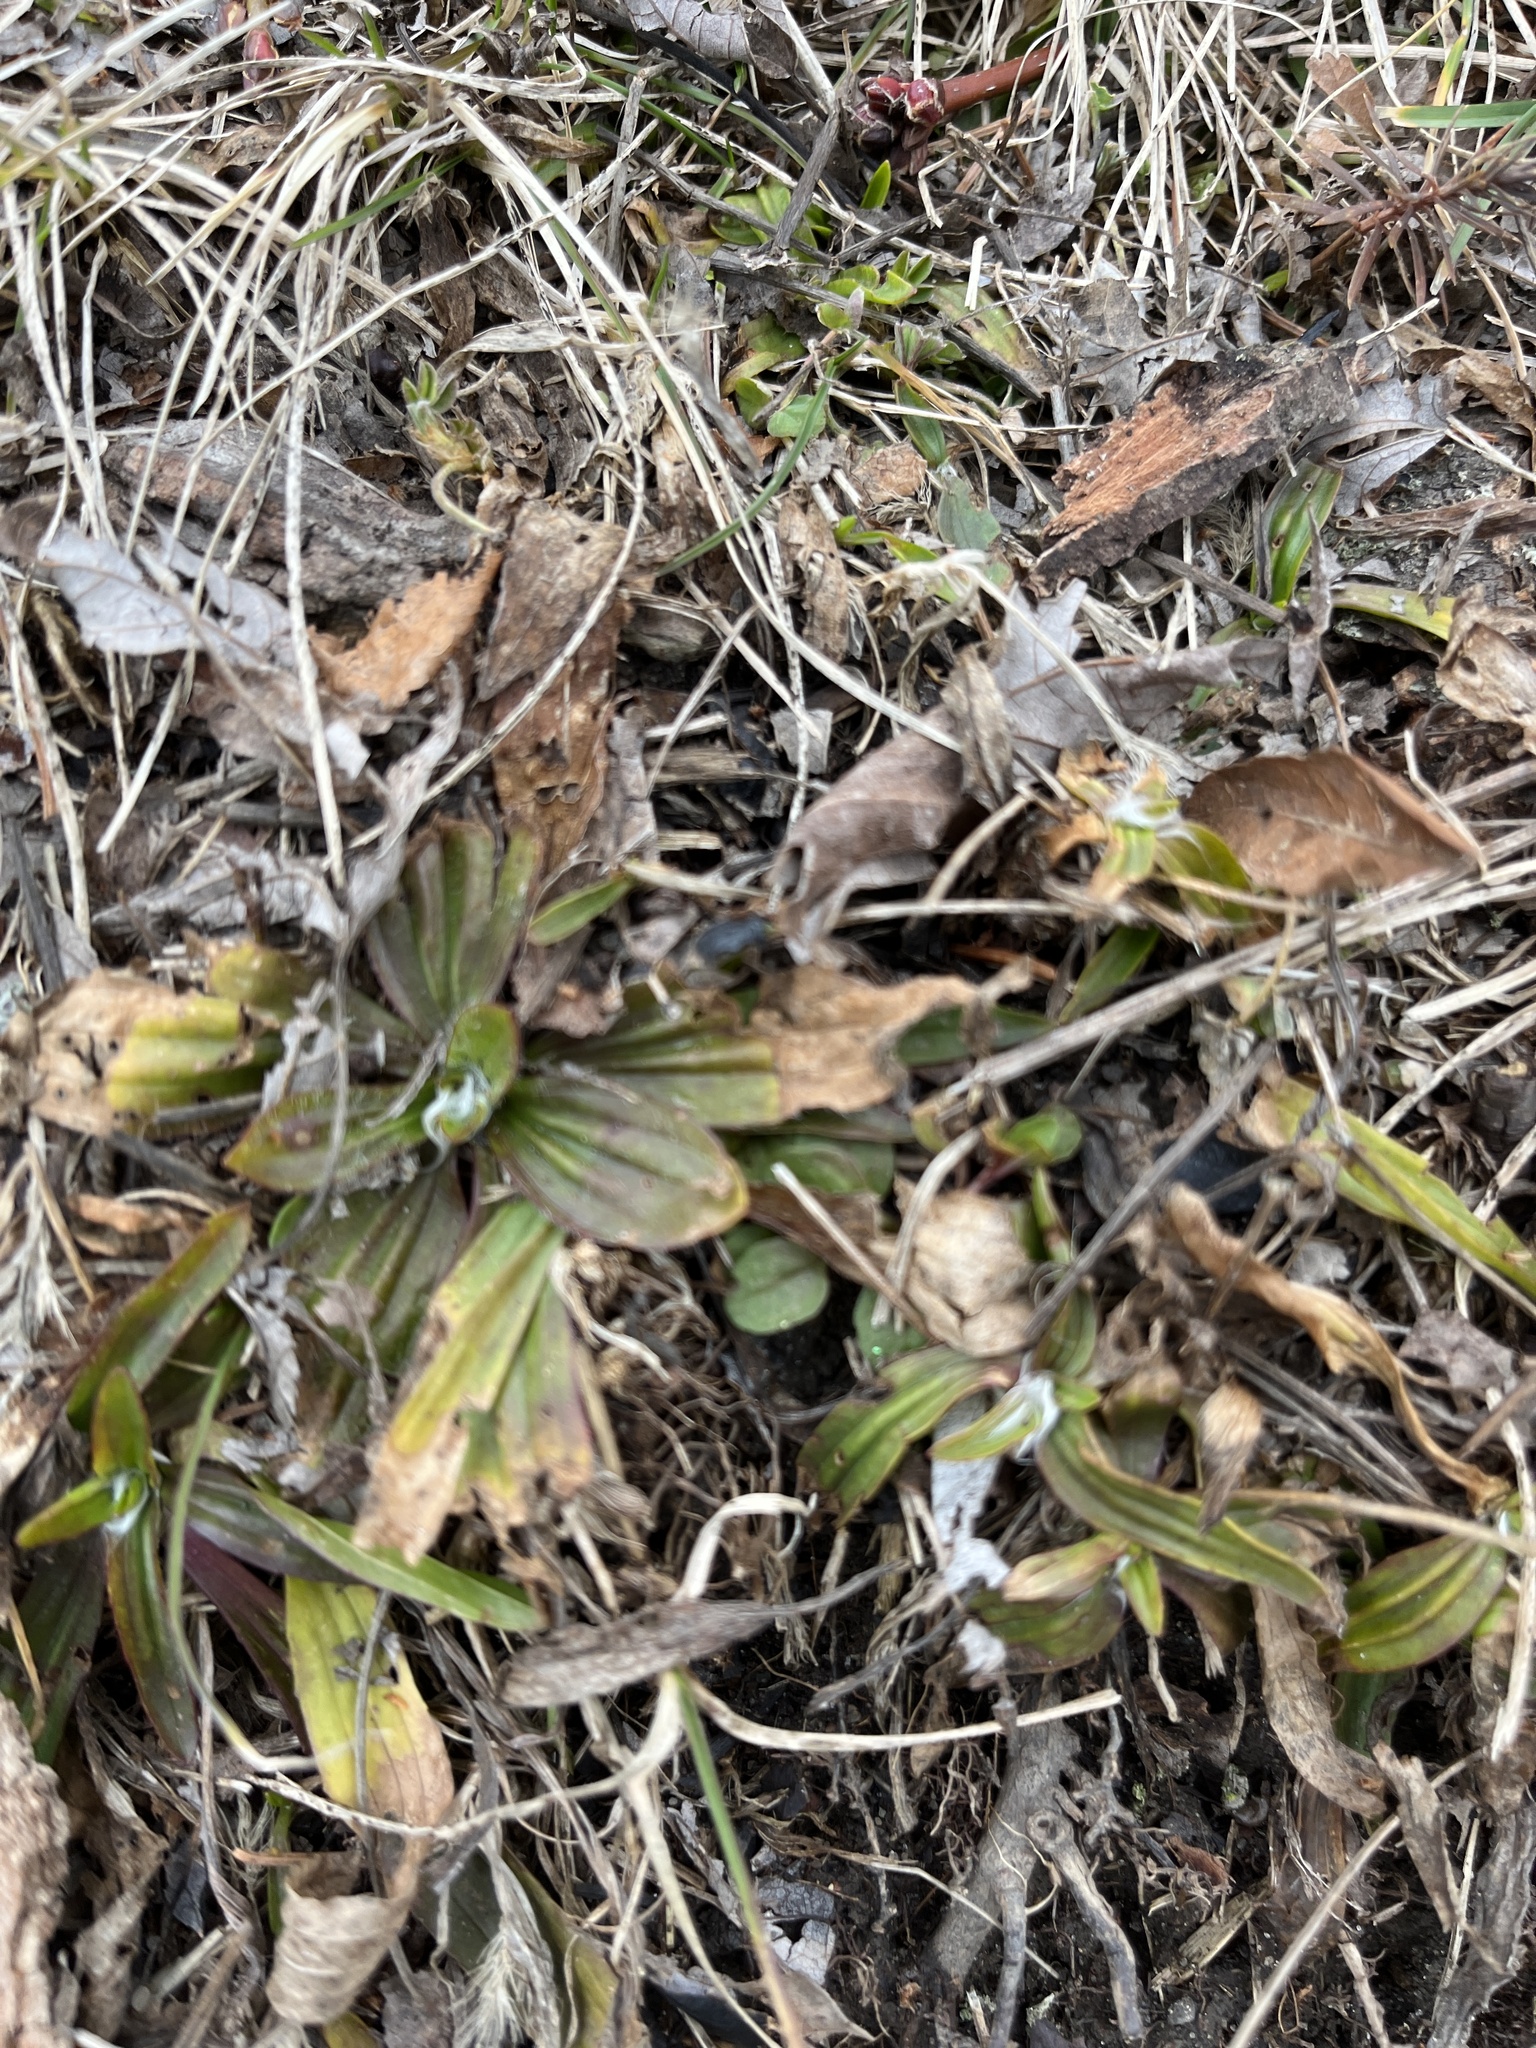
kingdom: Plantae
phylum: Tracheophyta
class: Magnoliopsida
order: Lamiales
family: Plantaginaceae
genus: Plantago
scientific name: Plantago lanceolata
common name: Ribwort plantain
